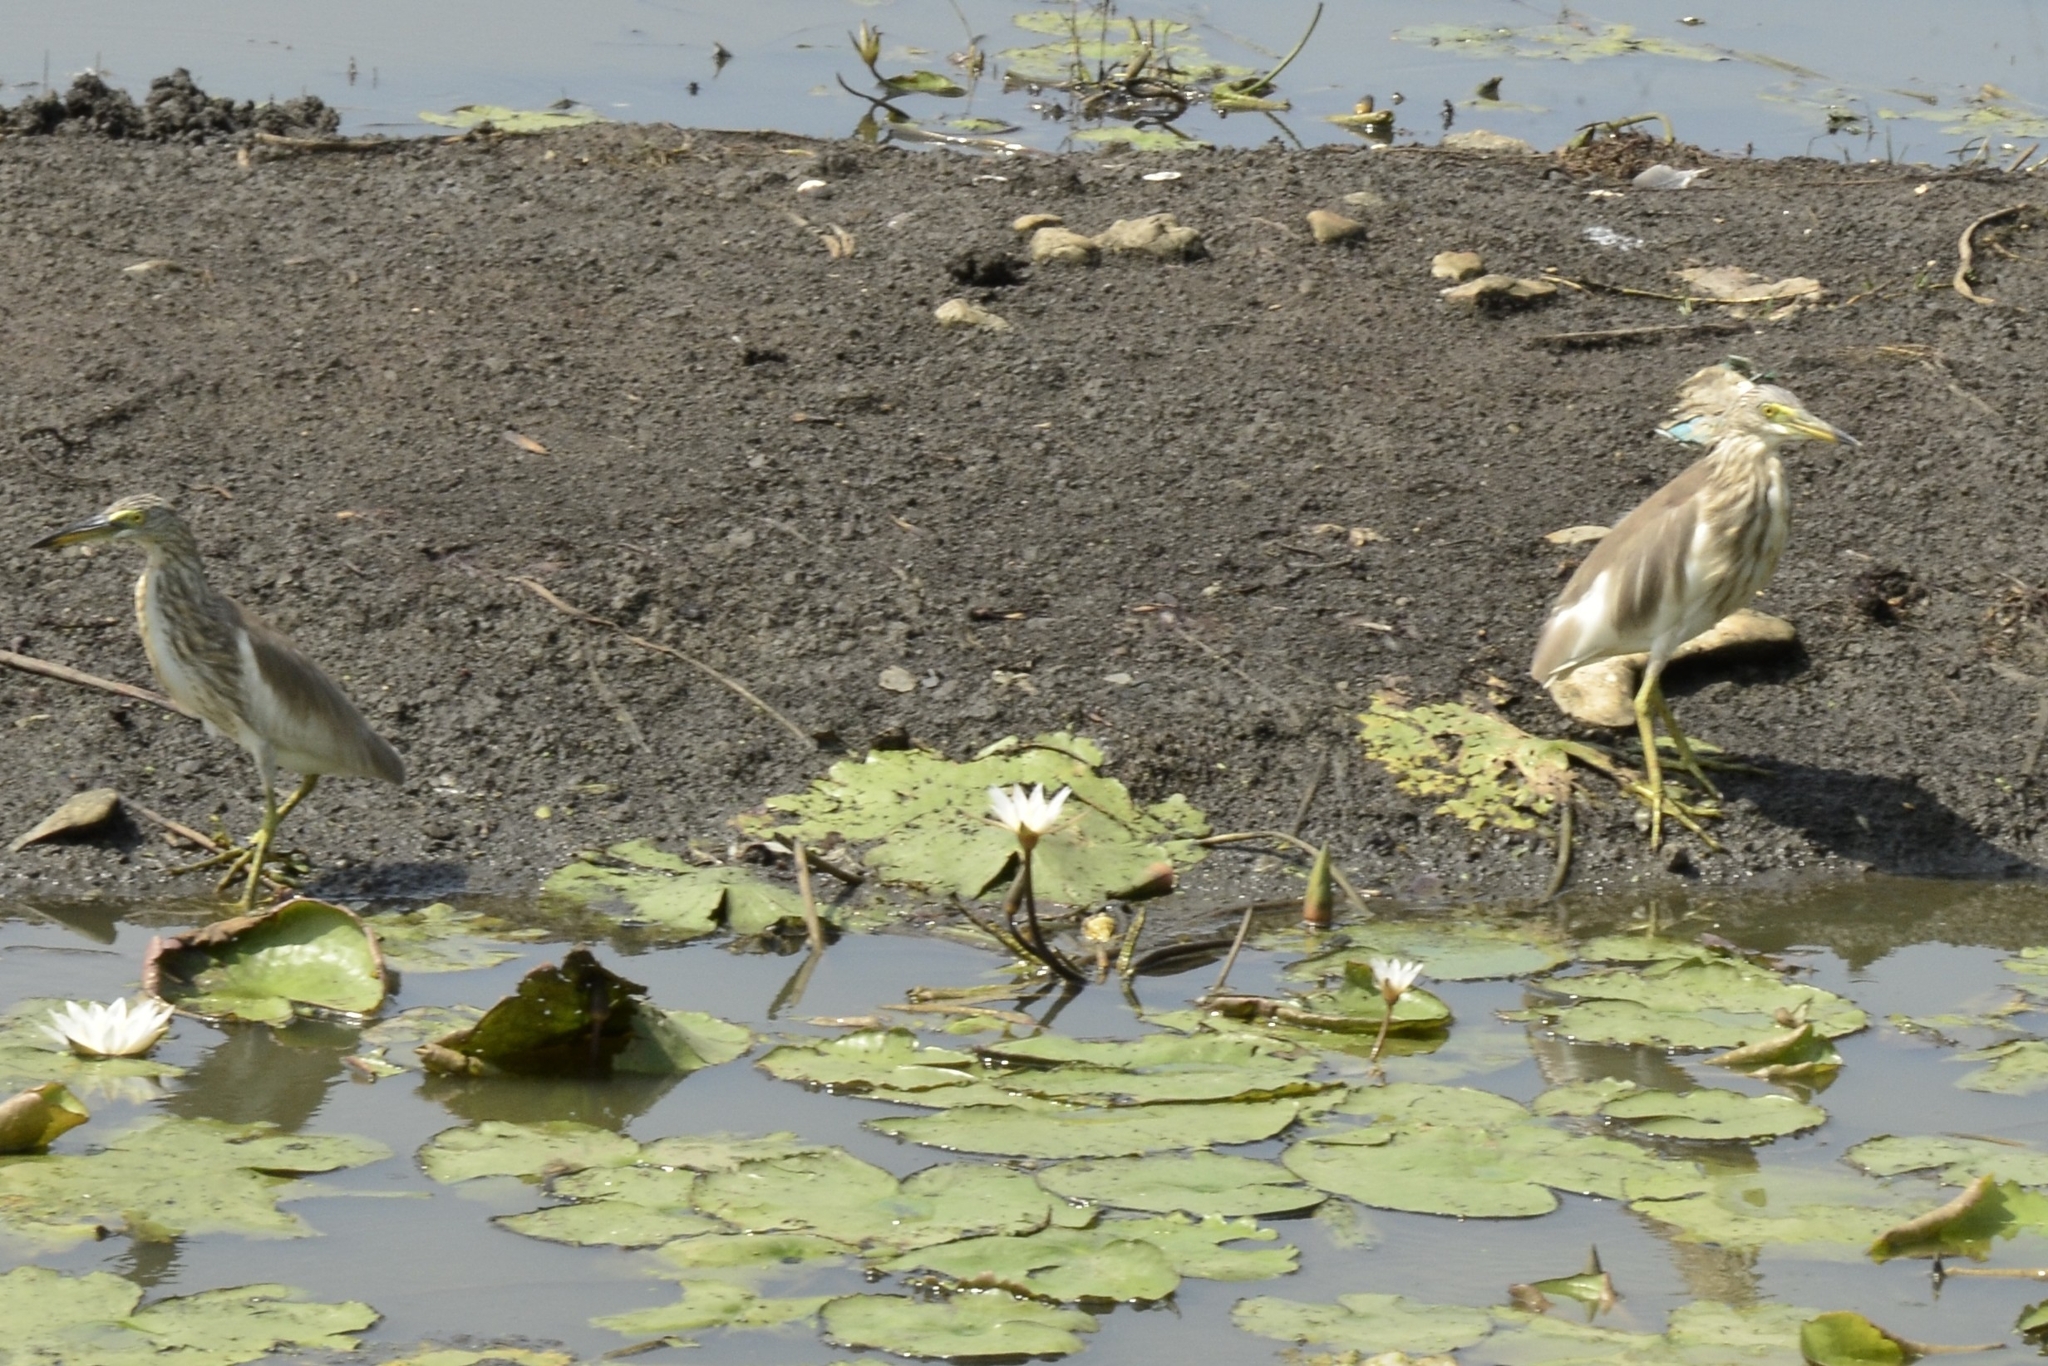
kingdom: Animalia
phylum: Chordata
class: Aves
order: Pelecaniformes
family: Ardeidae
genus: Ardeola
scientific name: Ardeola grayii
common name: Indian pond heron
